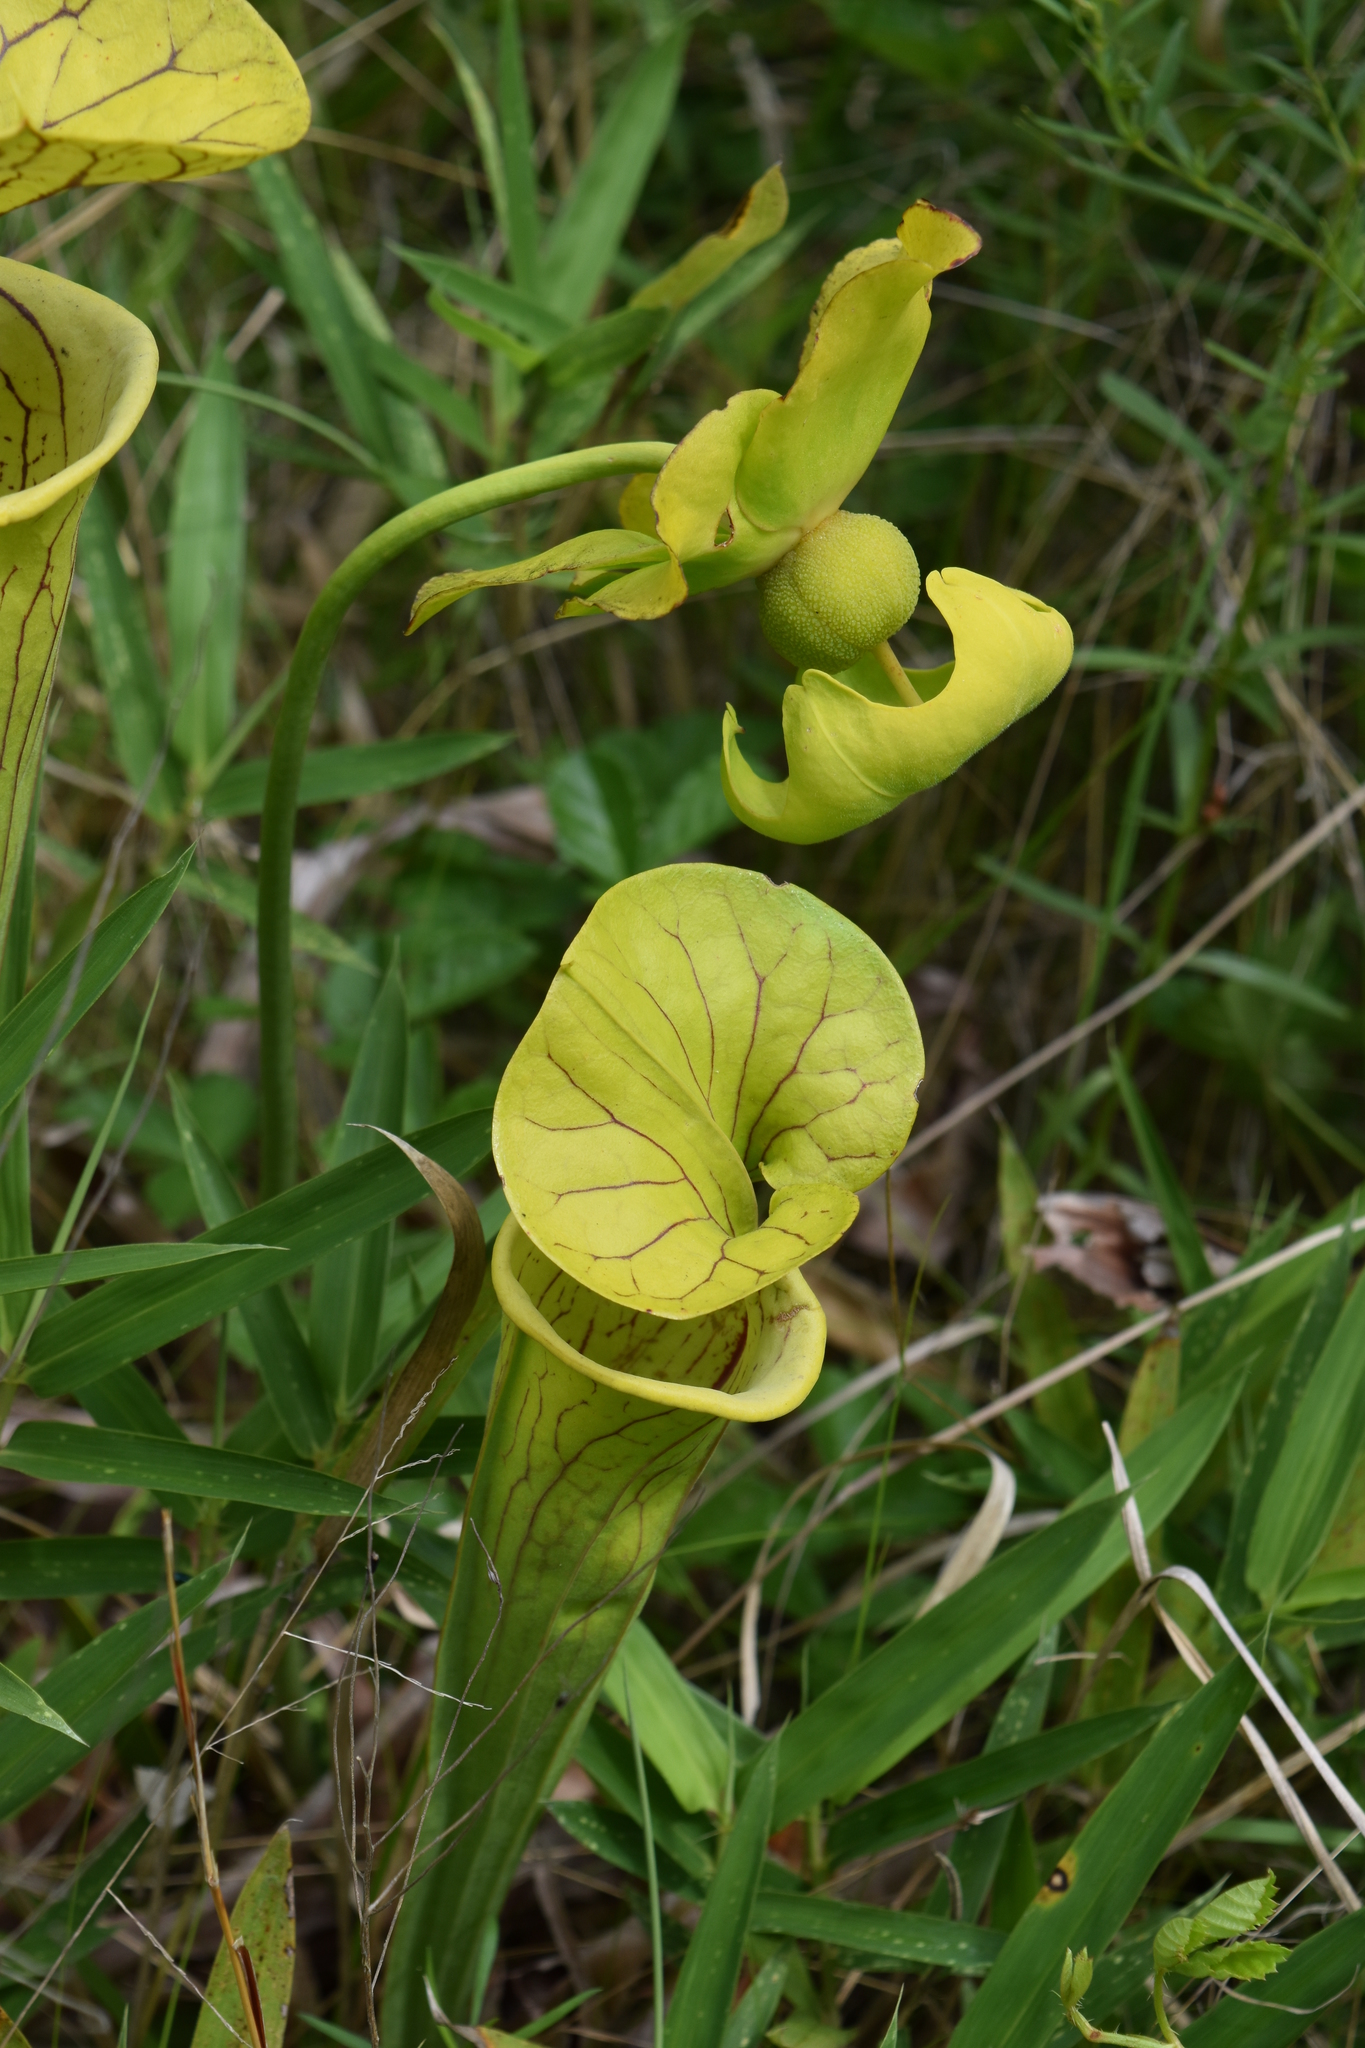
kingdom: Plantae
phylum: Tracheophyta
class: Magnoliopsida
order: Ericales
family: Sarraceniaceae
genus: Sarracenia
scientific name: Sarracenia flava
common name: Trumpets
